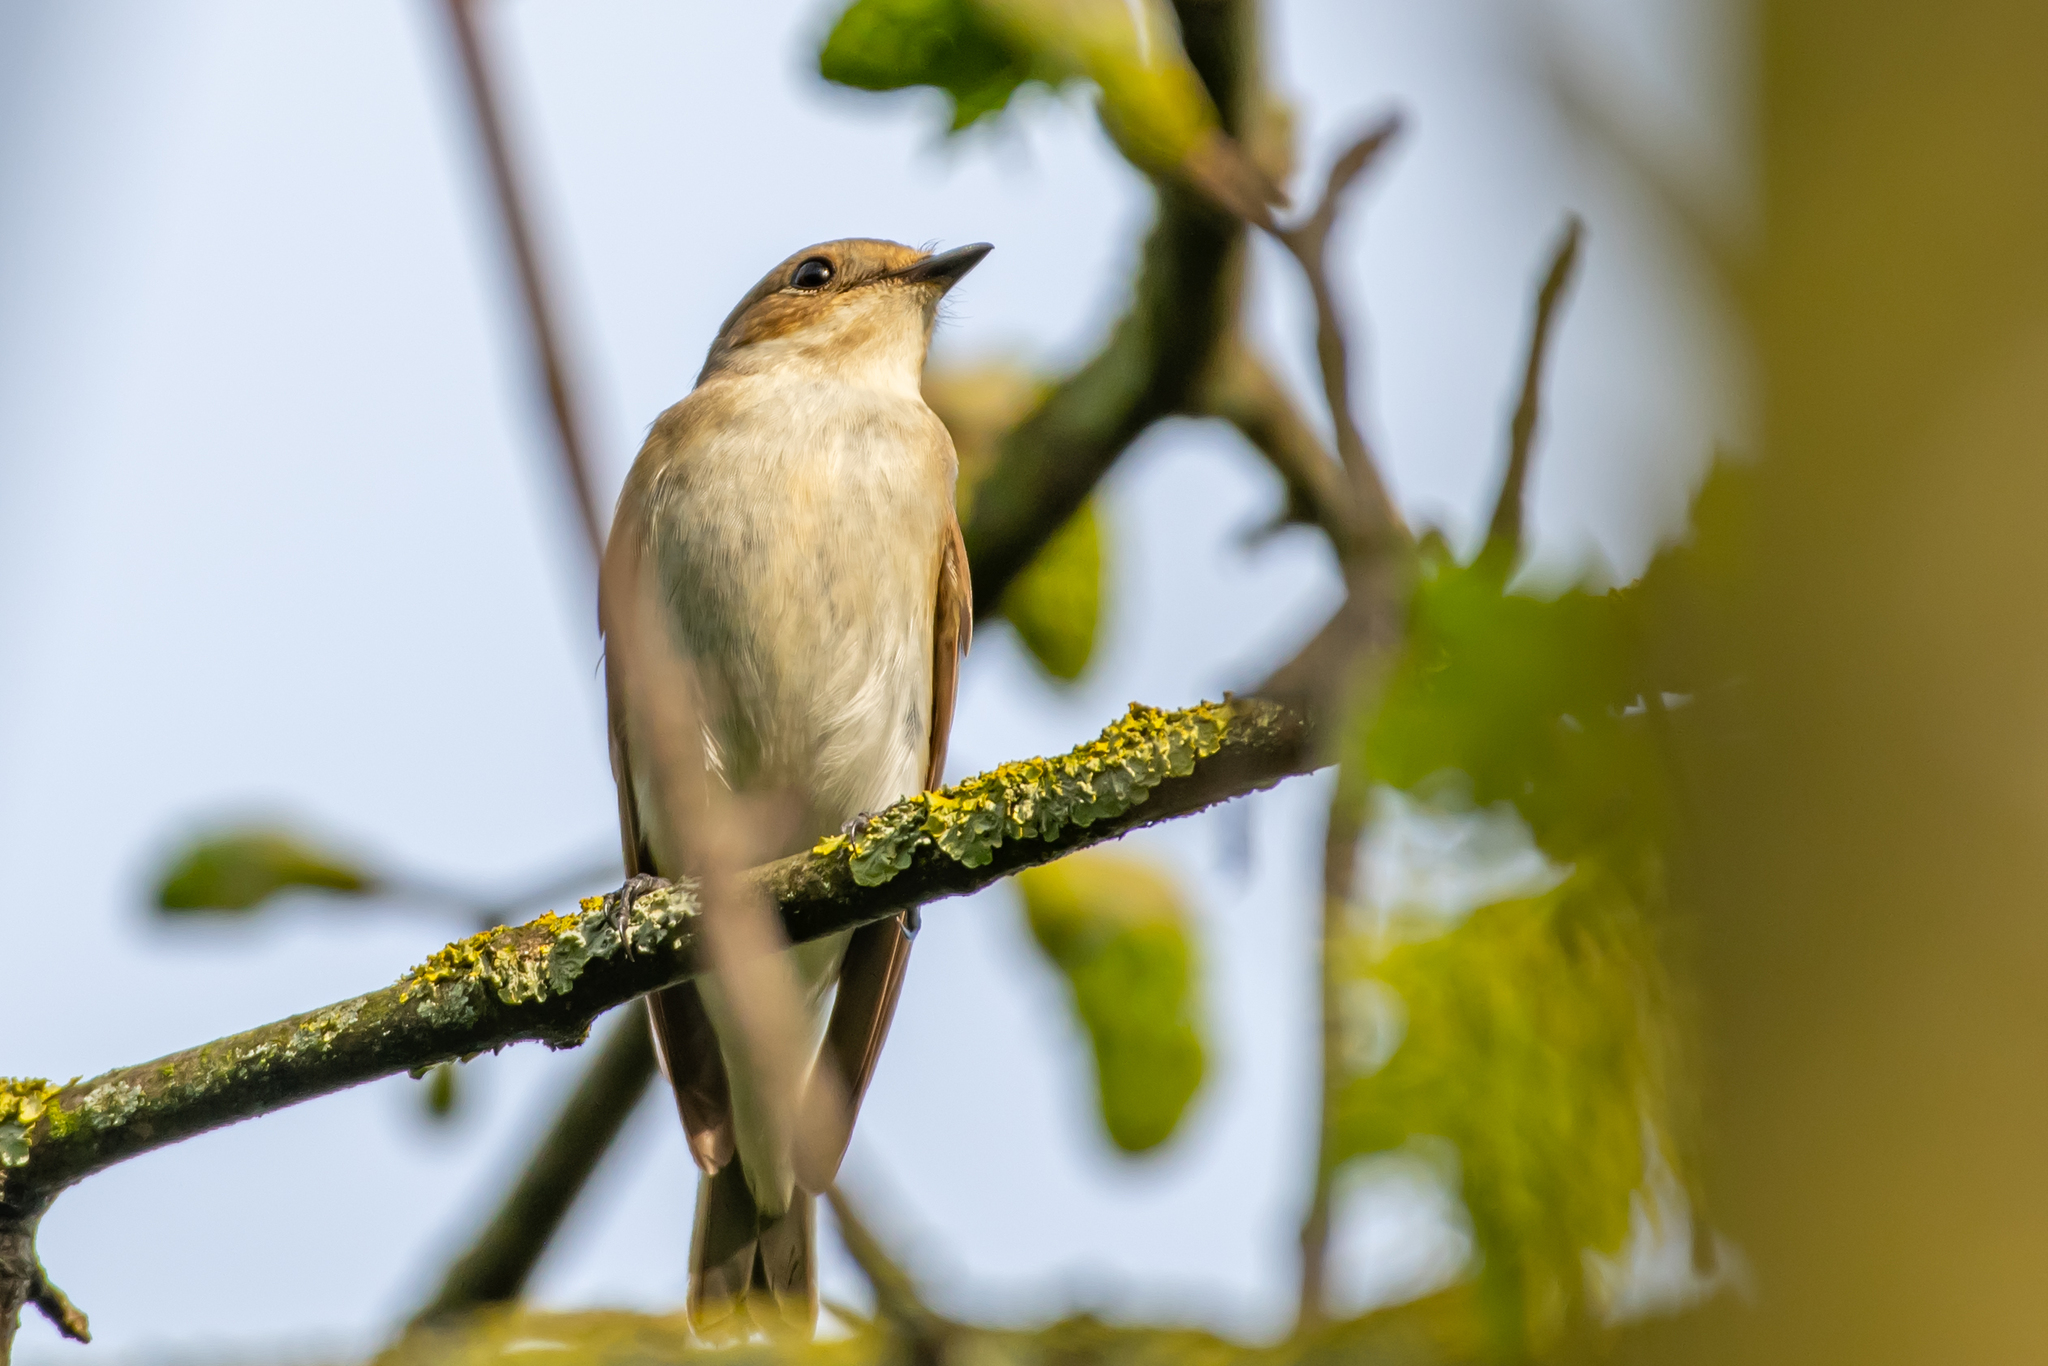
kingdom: Animalia
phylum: Chordata
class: Aves
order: Passeriformes
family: Muscicapidae
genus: Ficedula
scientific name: Ficedula hypoleuca
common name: European pied flycatcher
